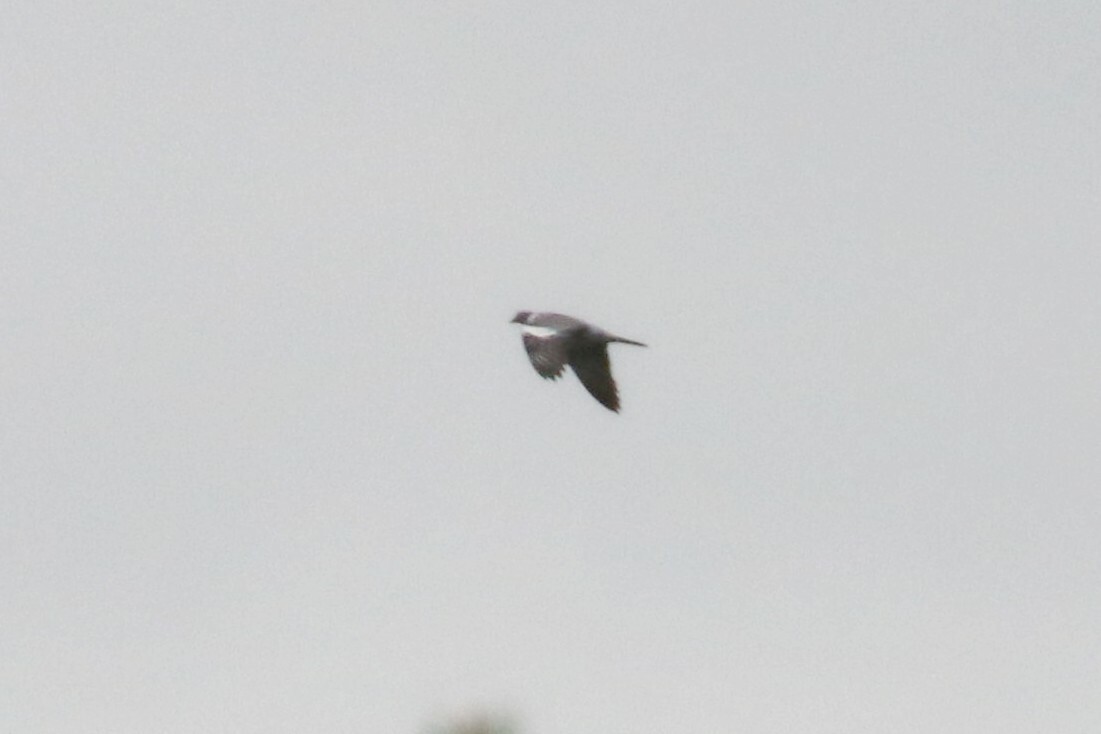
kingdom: Animalia
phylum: Chordata
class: Aves
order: Columbiformes
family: Columbidae
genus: Columba
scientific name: Columba palumbus
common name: Common wood pigeon
